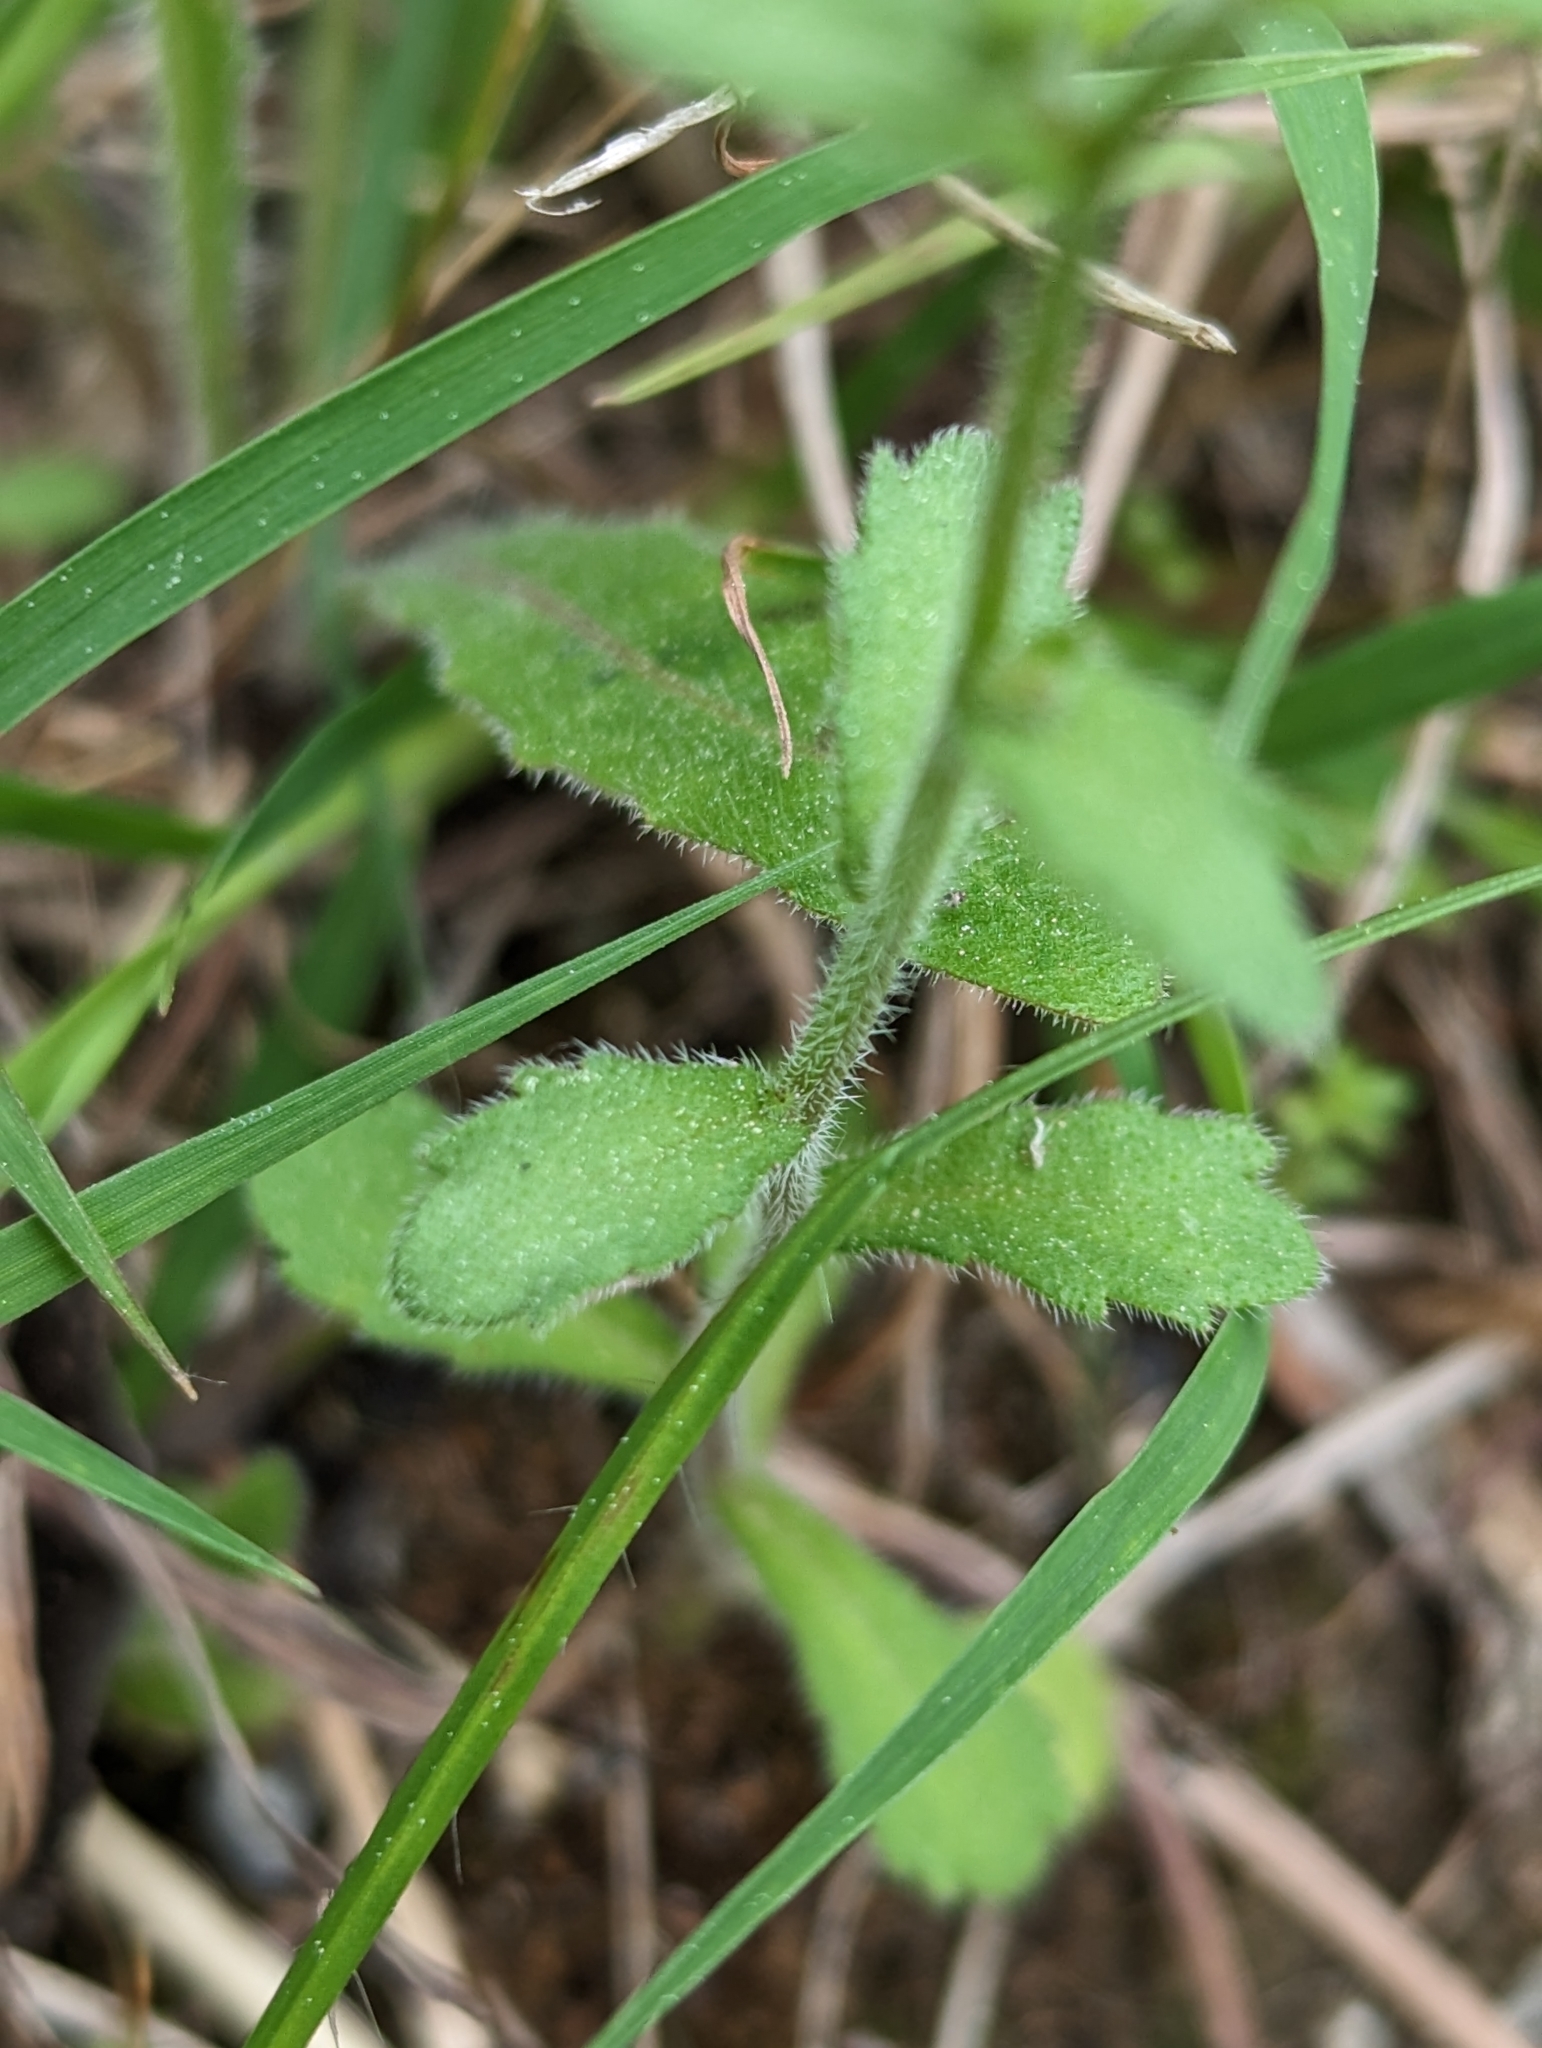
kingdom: Plantae
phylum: Tracheophyta
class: Magnoliopsida
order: Asterales
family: Campanulaceae
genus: Campanula
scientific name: Campanula erinus
